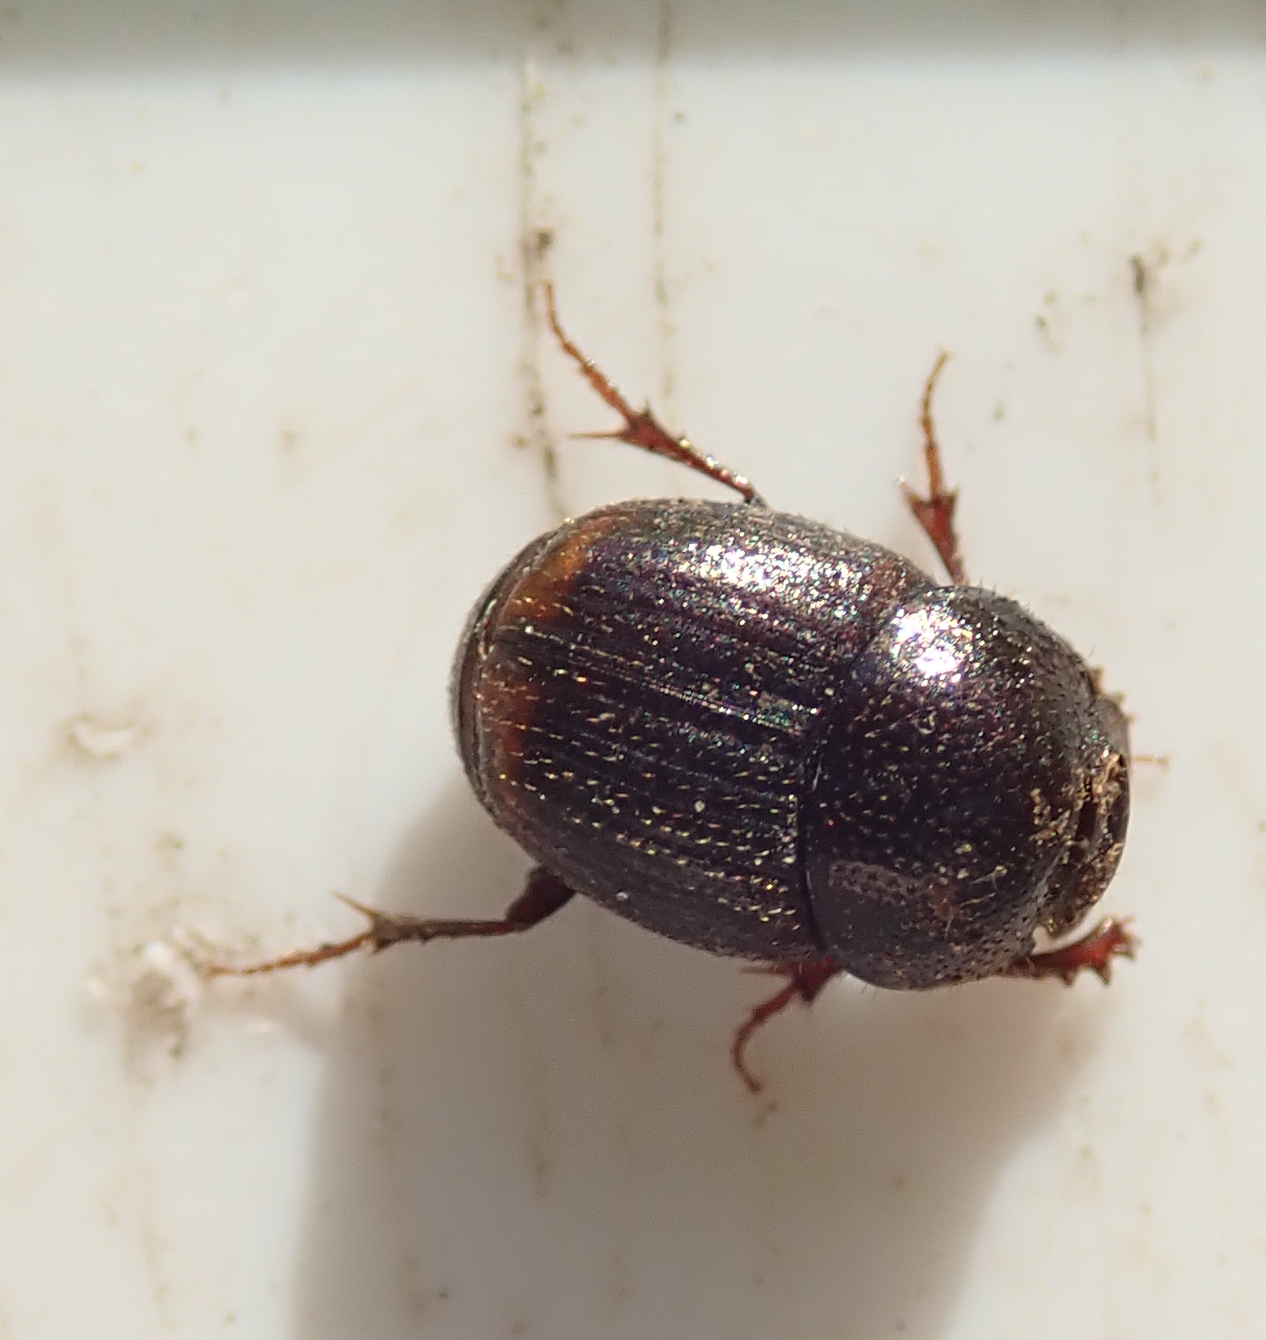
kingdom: Animalia
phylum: Arthropoda
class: Insecta
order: Coleoptera
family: Scarabaeidae
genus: Onthophagus
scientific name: Onthophagus quadrimaculatus
